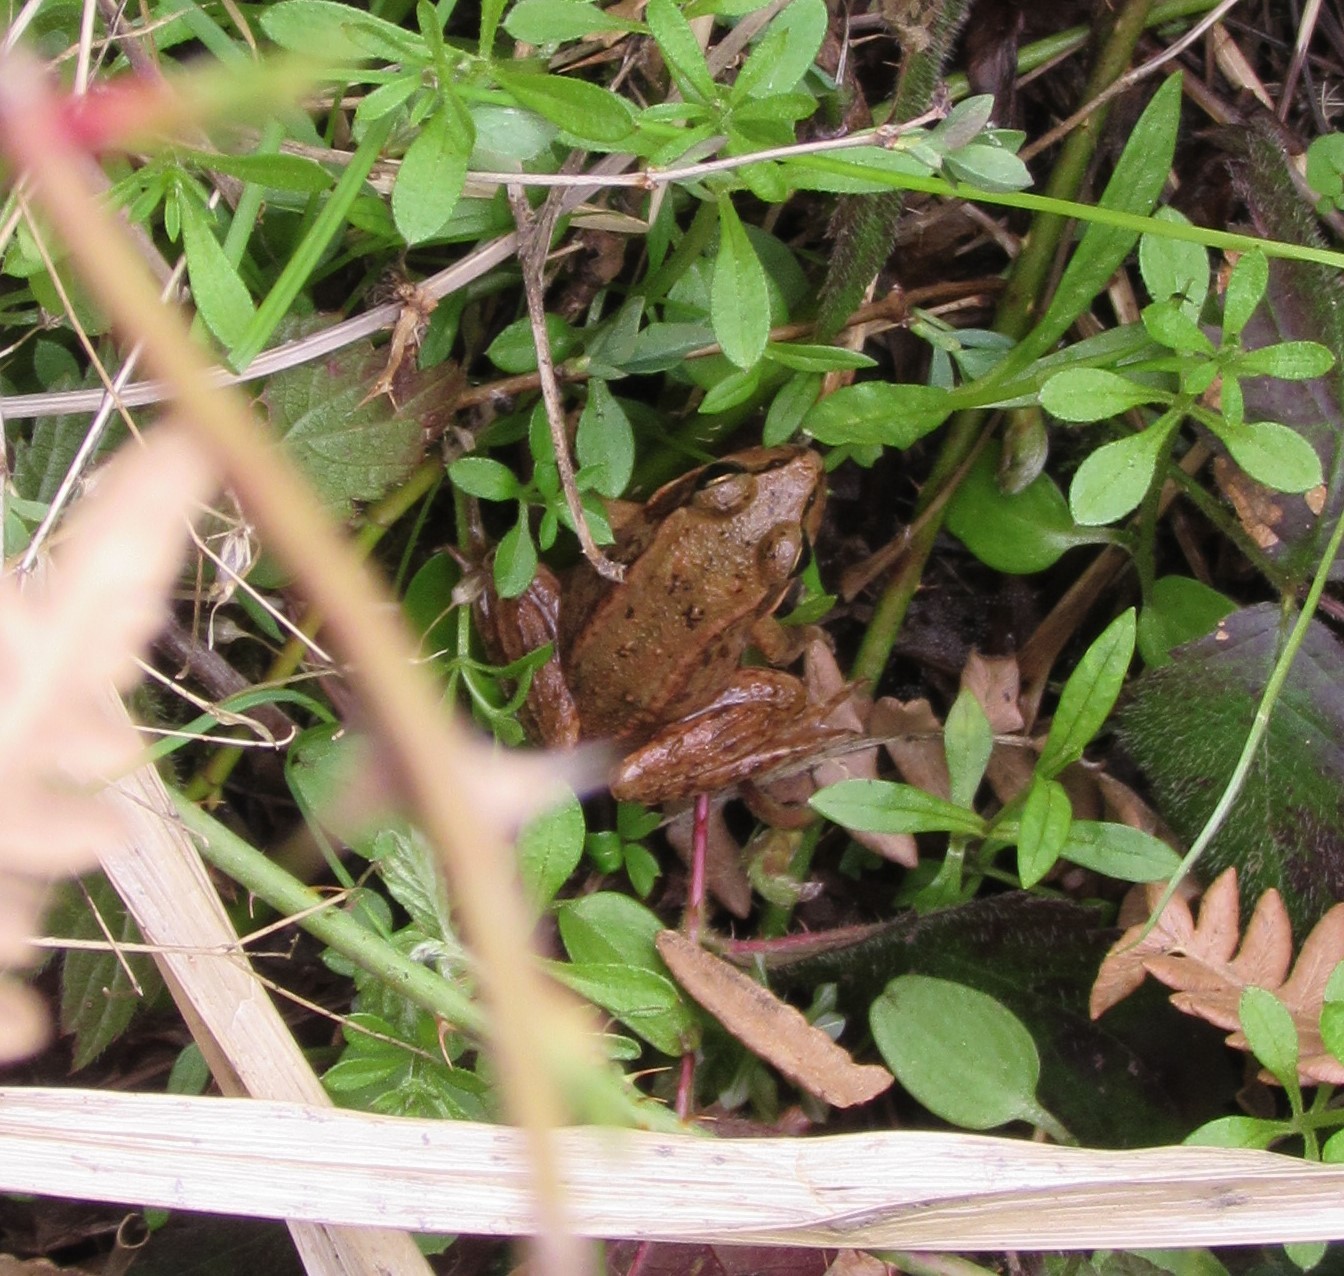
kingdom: Animalia
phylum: Chordata
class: Amphibia
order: Anura
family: Ranidae
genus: Rana
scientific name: Rana aurora
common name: Red-legged frog
